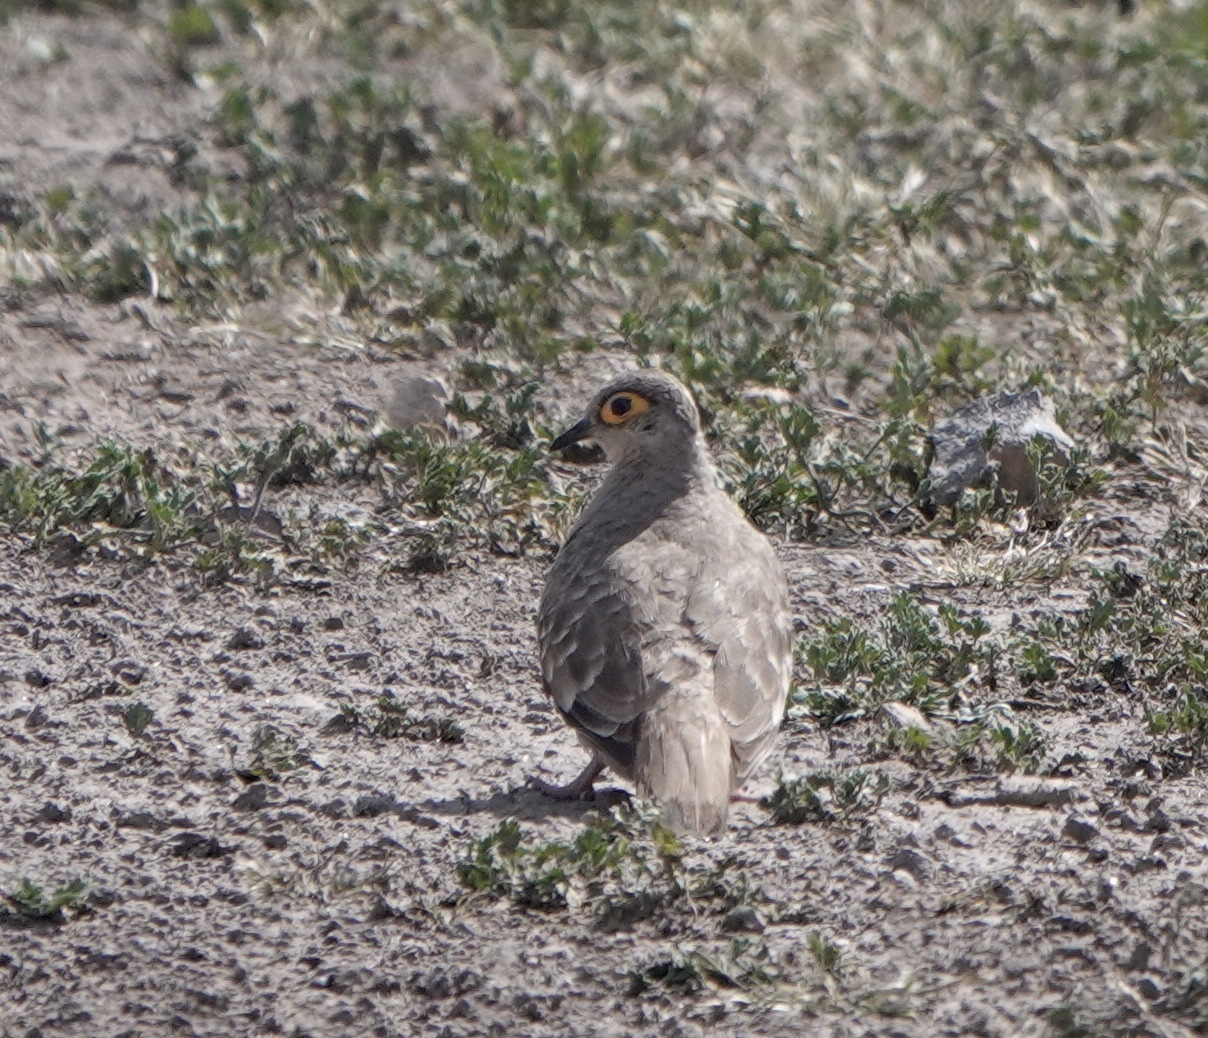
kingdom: Animalia
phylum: Chordata
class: Aves
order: Columbiformes
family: Columbidae
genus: Metriopelia
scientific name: Metriopelia ceciliae
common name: Bare-faced ground dove
